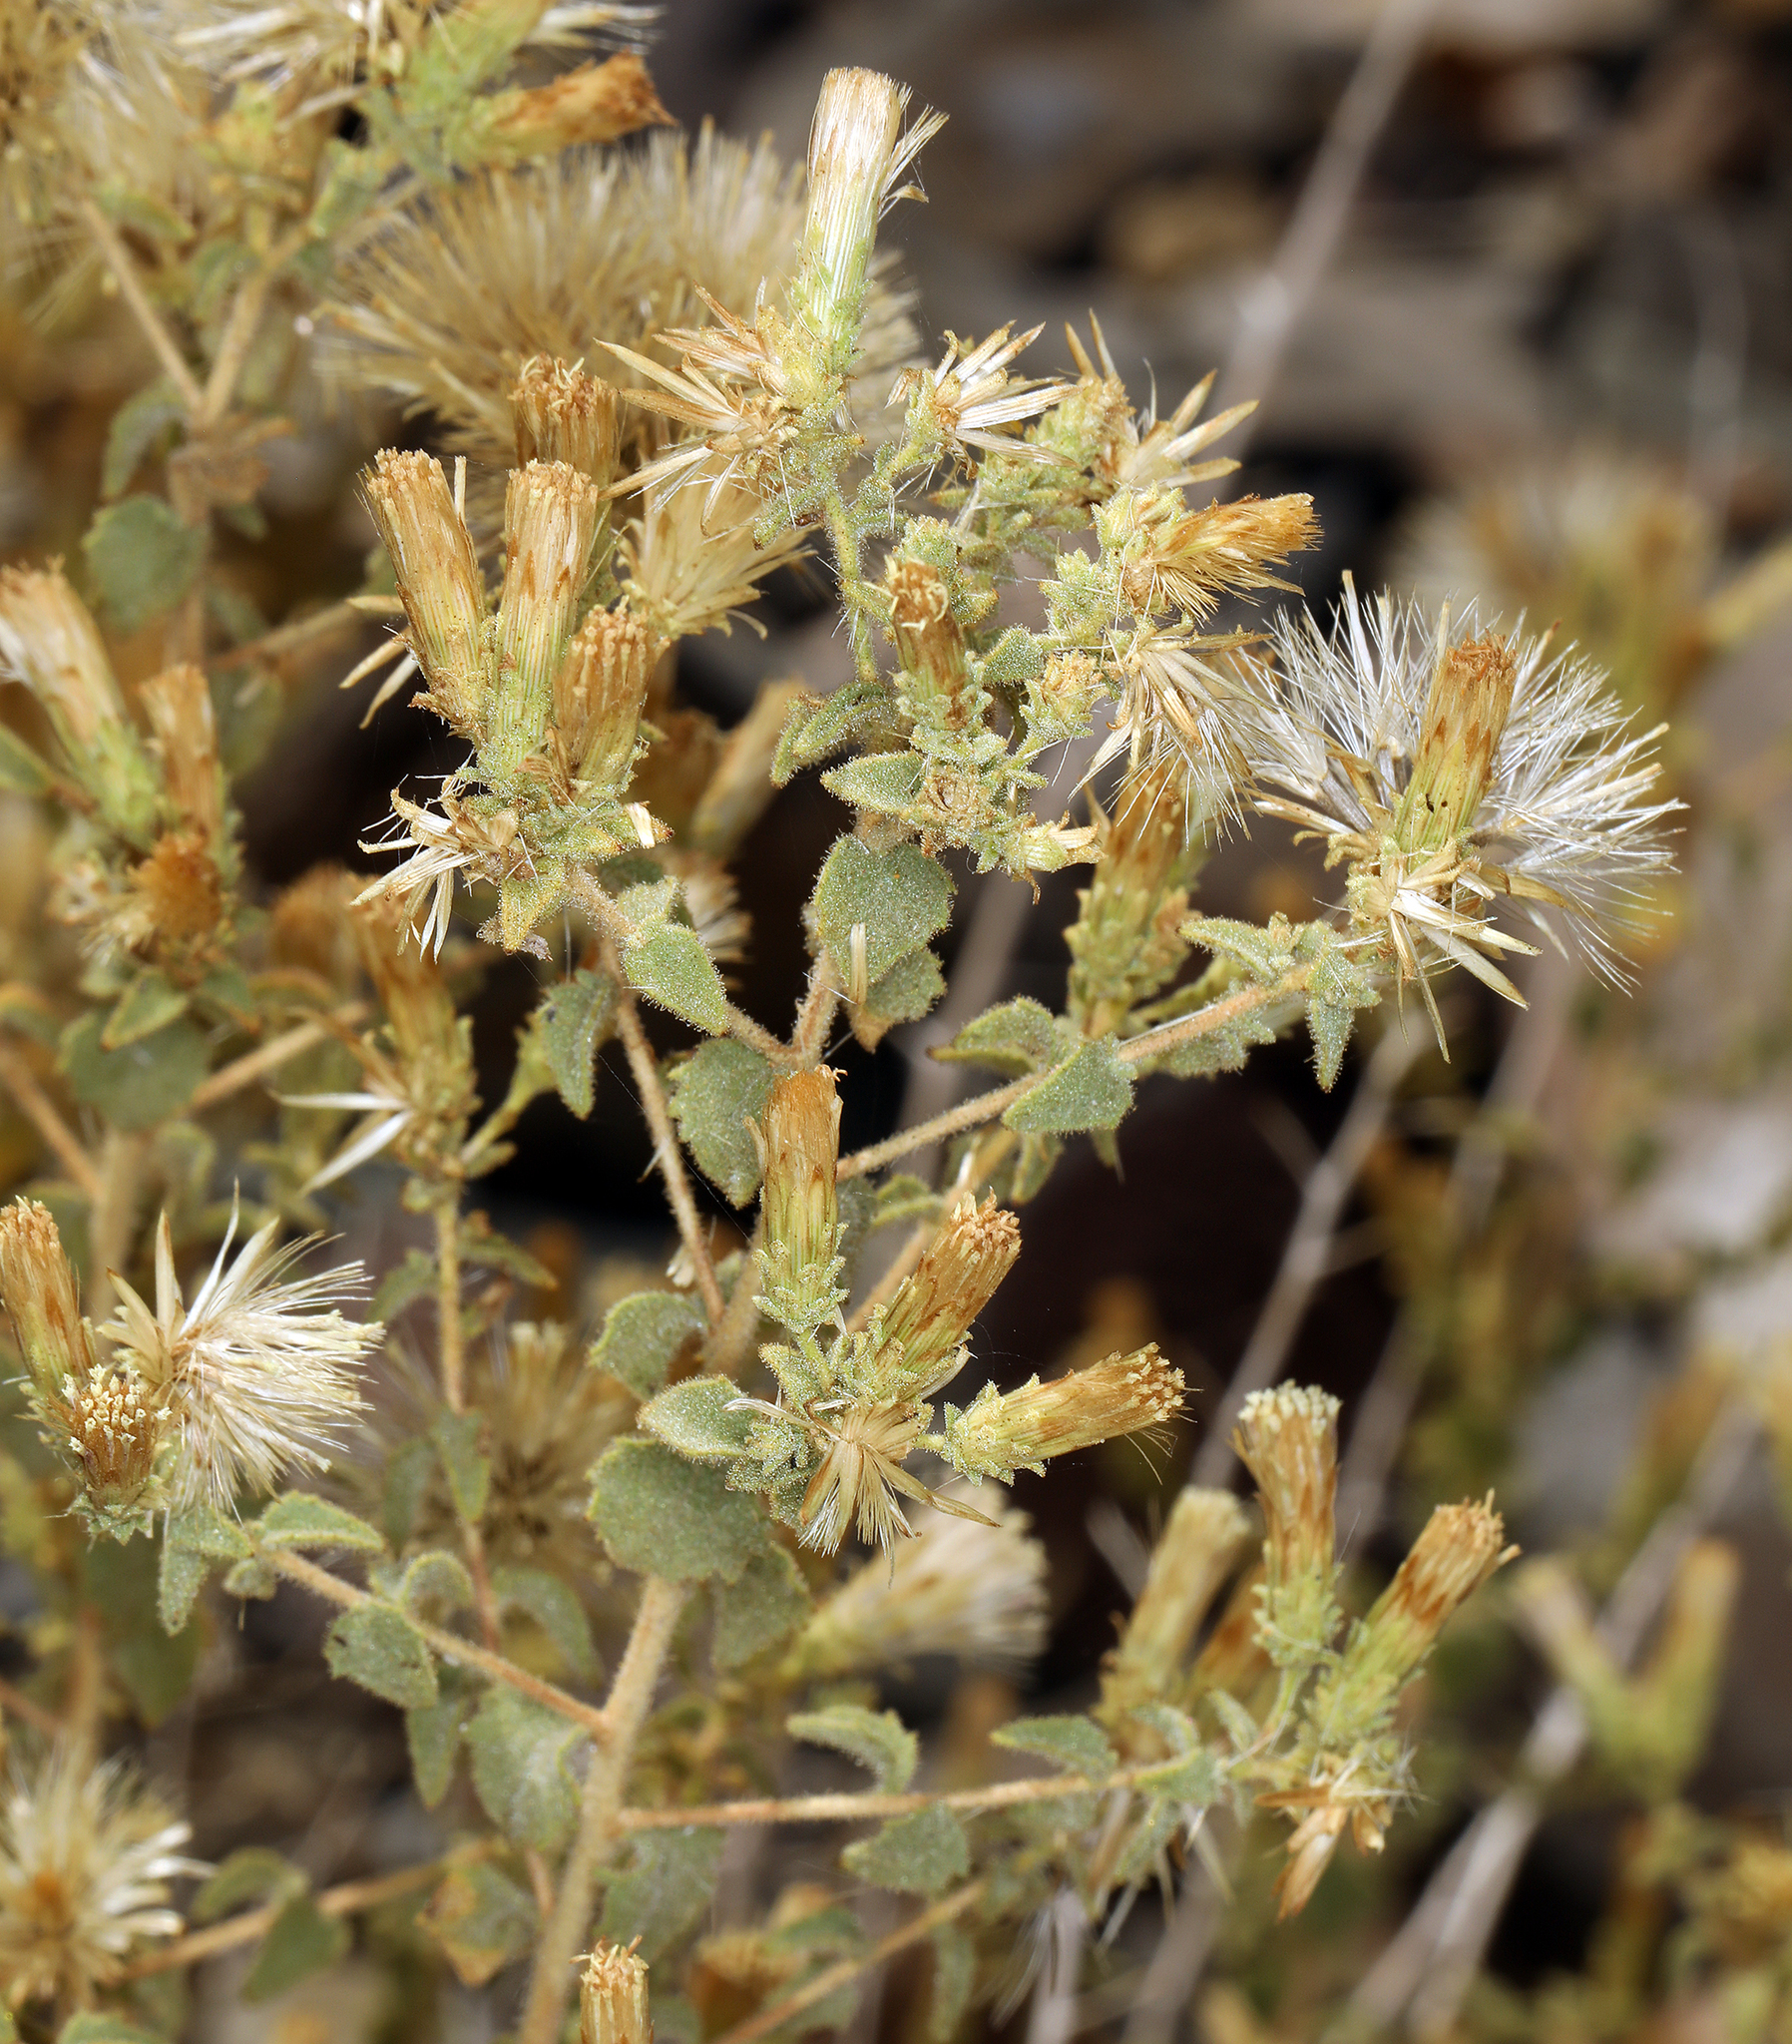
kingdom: Plantae
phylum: Tracheophyta
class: Magnoliopsida
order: Asterales
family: Asteraceae
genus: Brickellia
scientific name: Brickellia microphylla
